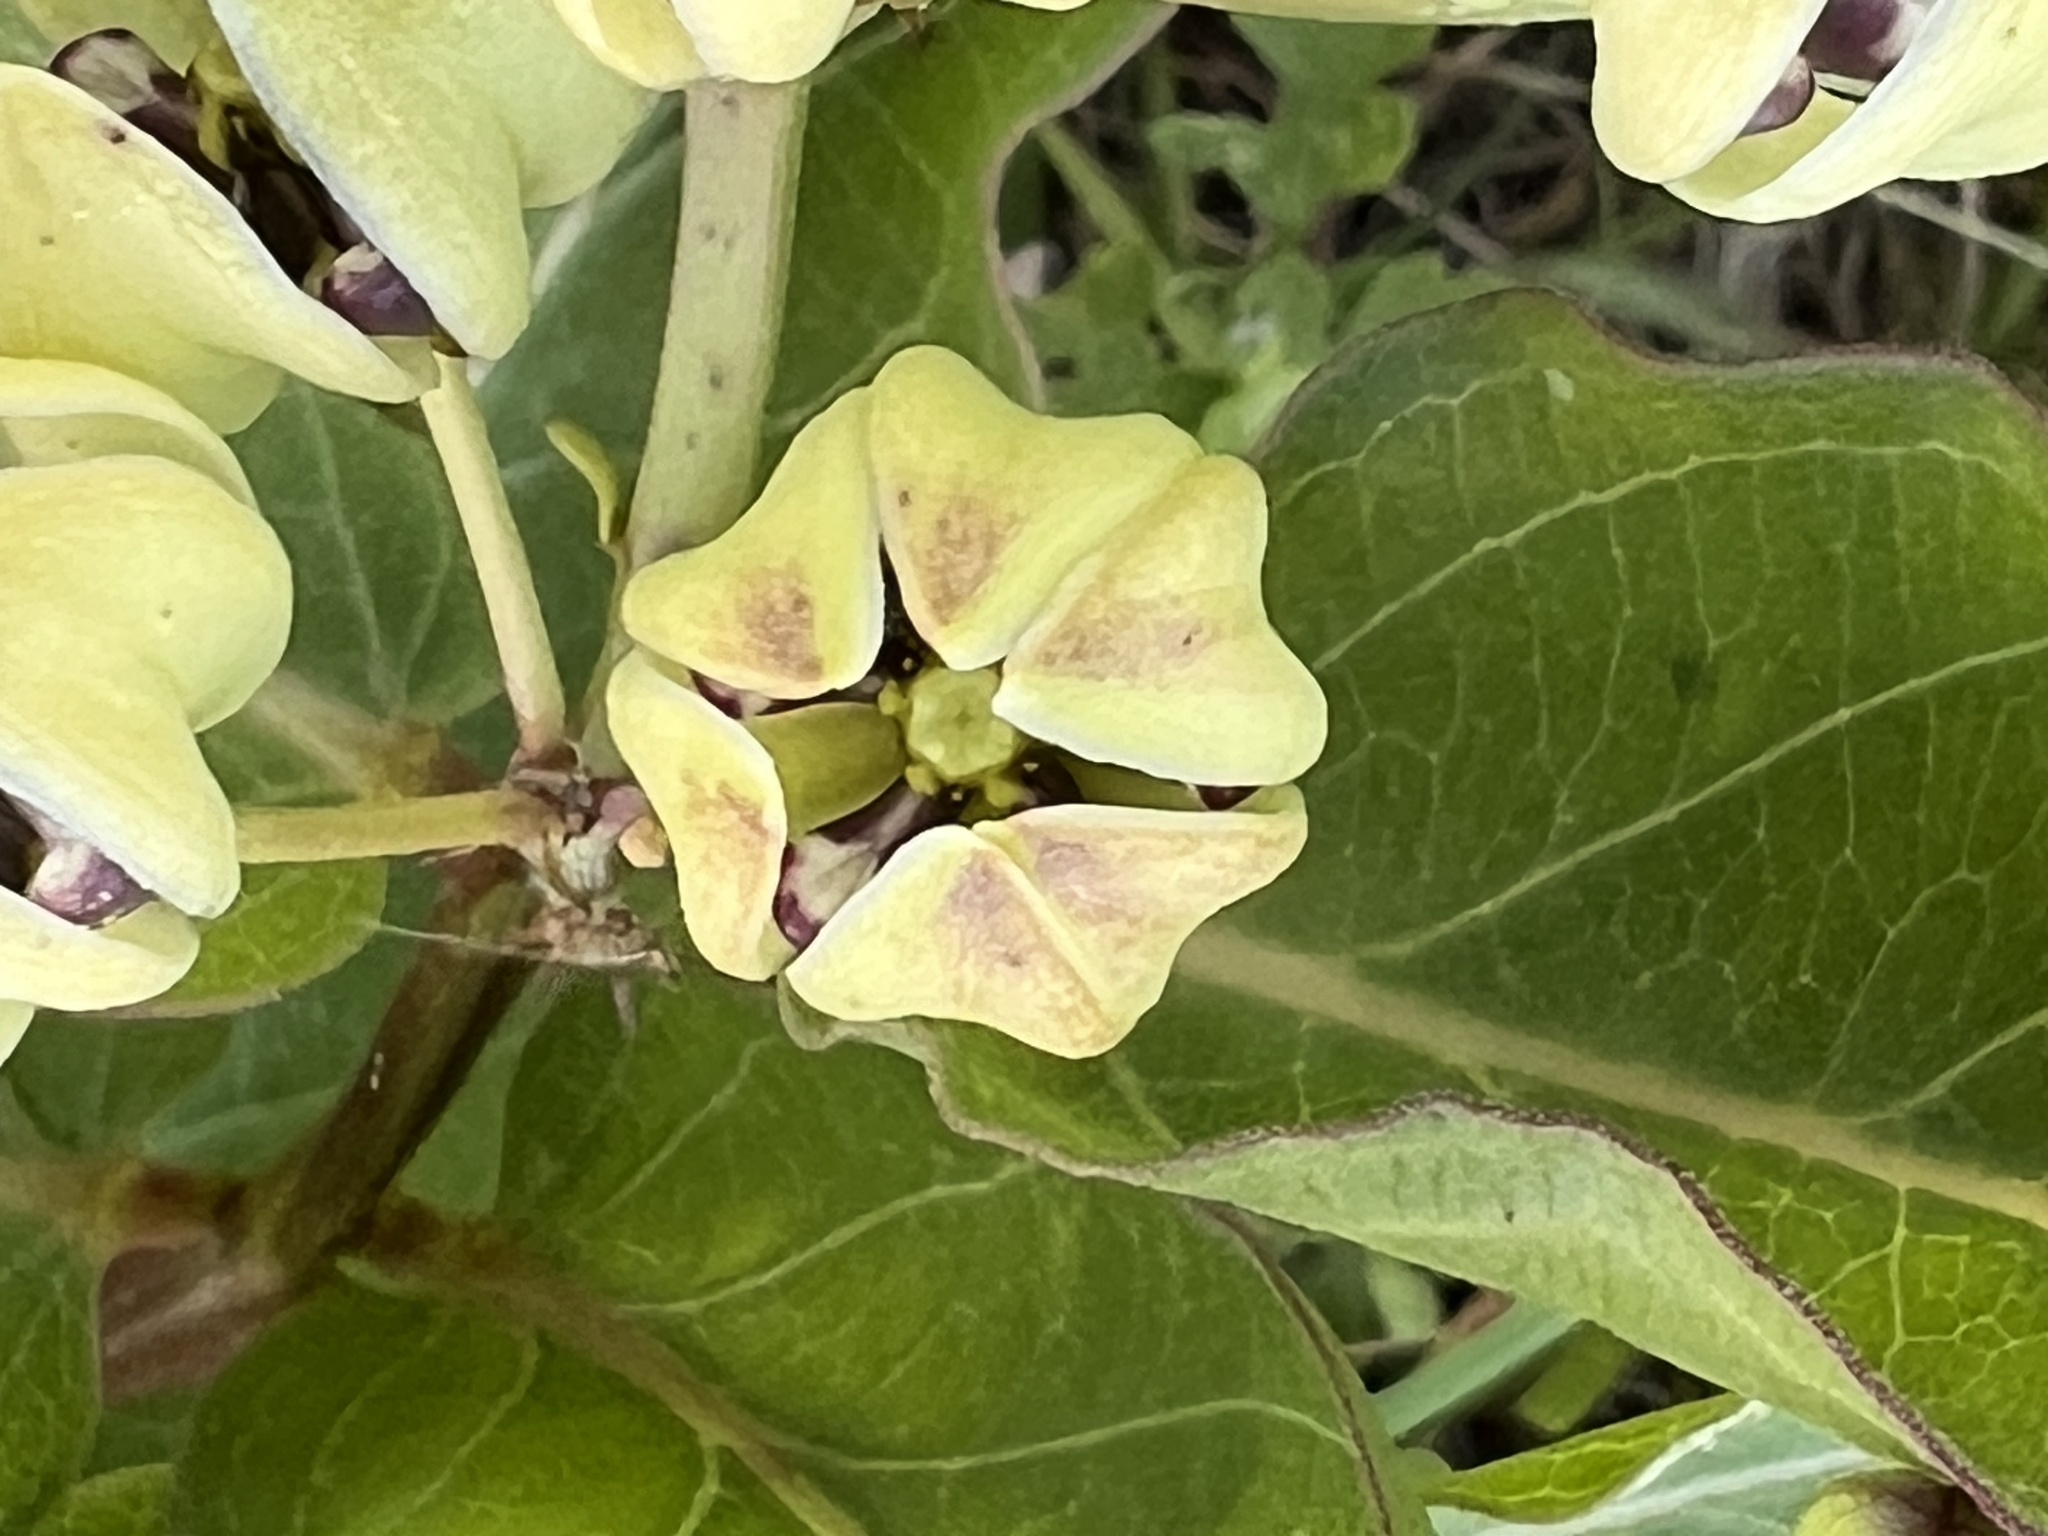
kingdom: Plantae
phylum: Tracheophyta
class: Magnoliopsida
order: Gentianales
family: Apocynaceae
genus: Asclepias
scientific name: Asclepias viridis
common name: Antelope-horns
